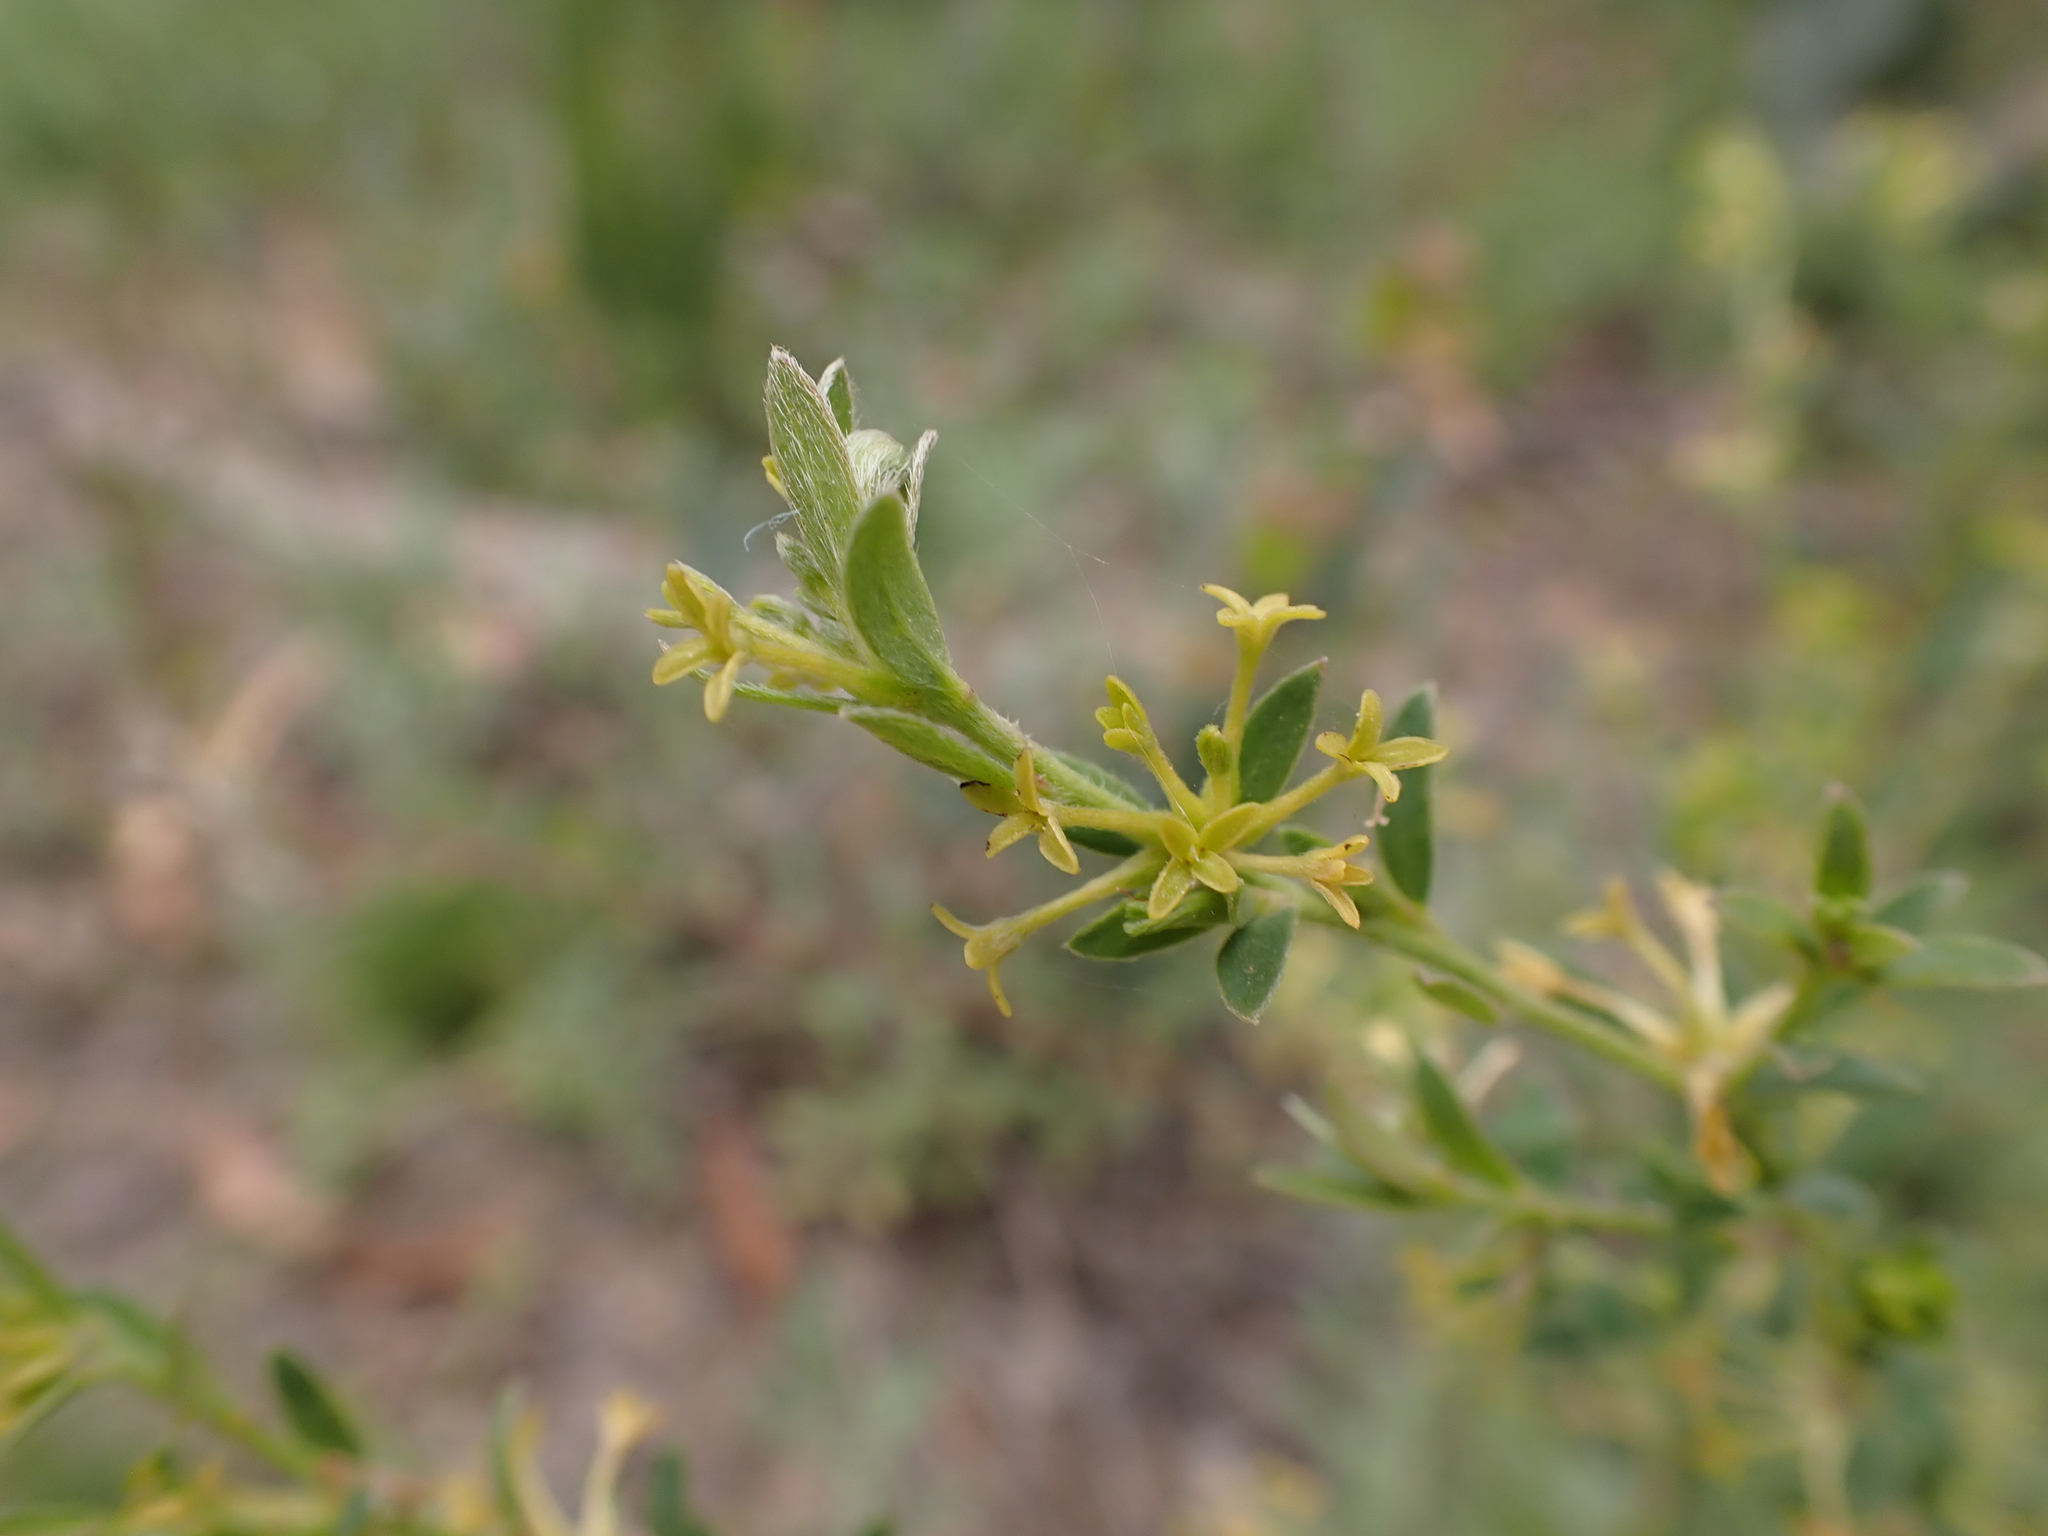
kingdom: Plantae
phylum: Tracheophyta
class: Magnoliopsida
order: Malvales
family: Thymelaeaceae
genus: Pimelea
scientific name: Pimelea curviflora
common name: Curved riceflower
